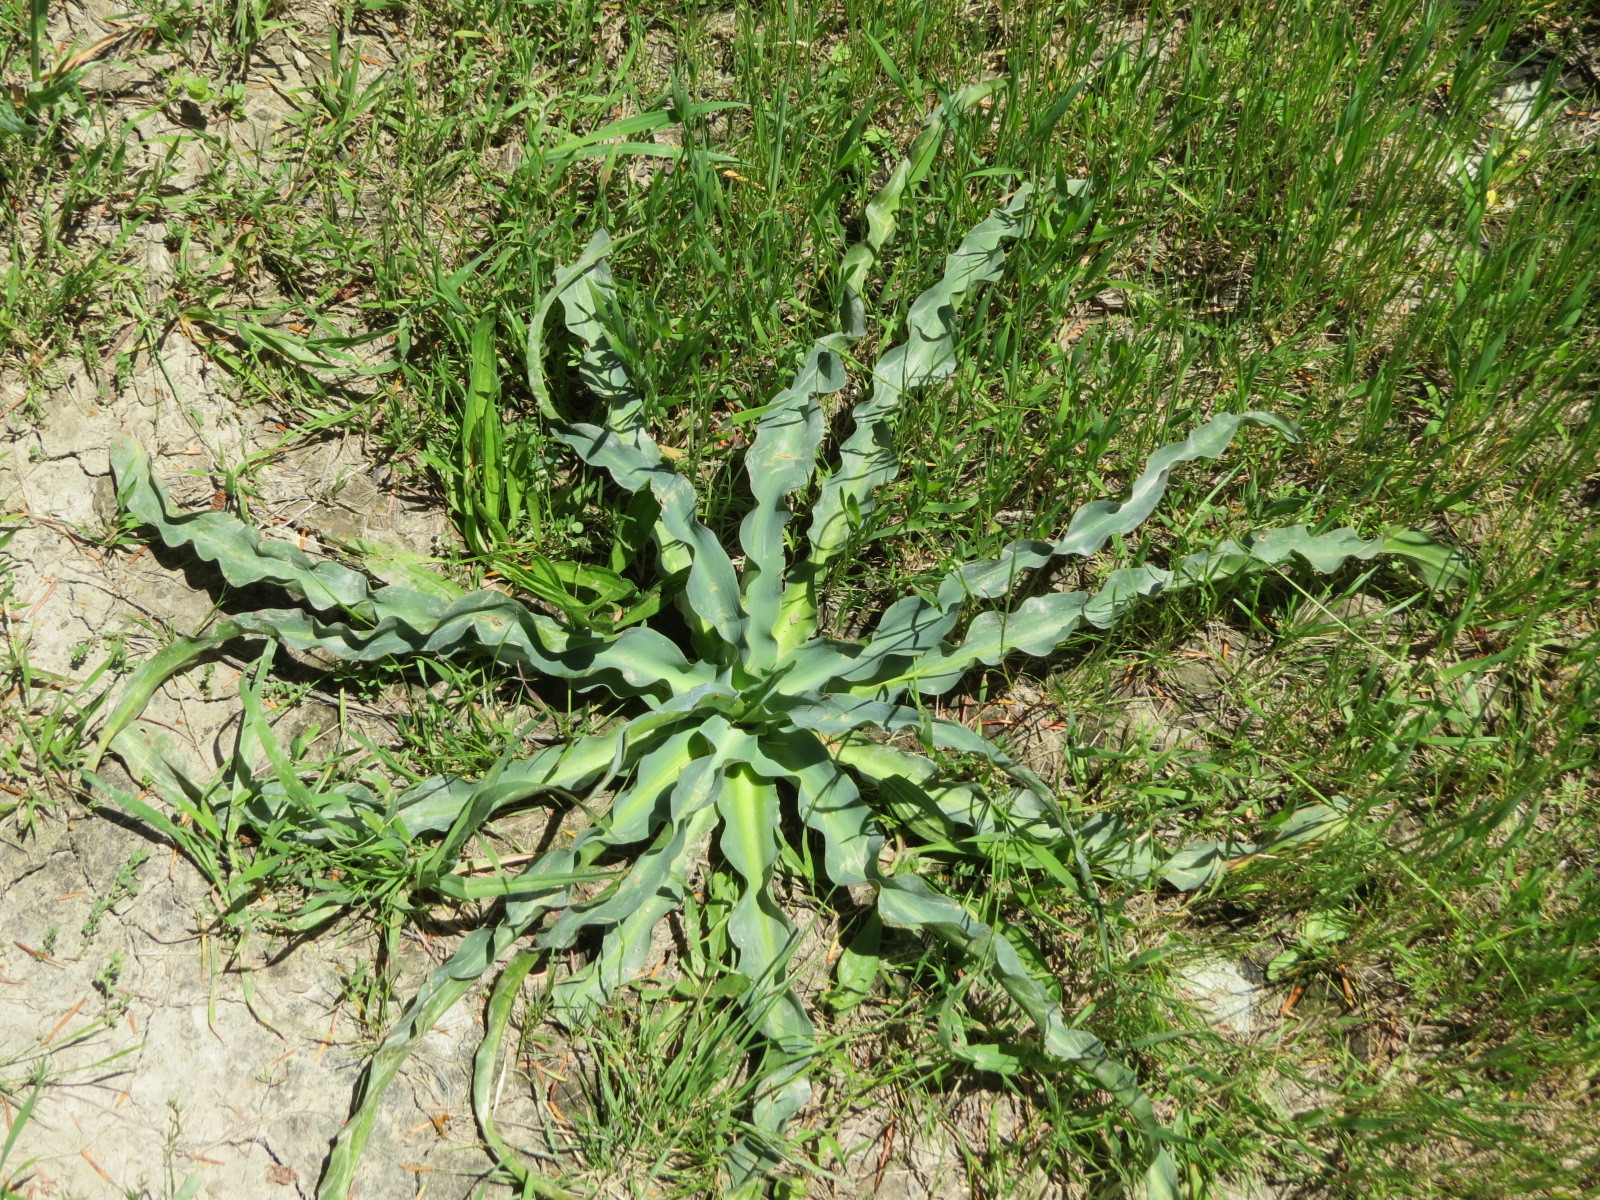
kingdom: Plantae
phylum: Tracheophyta
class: Liliopsida
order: Asparagales
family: Asparagaceae
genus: Chlorogalum
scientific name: Chlorogalum pomeridianum
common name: Amole
